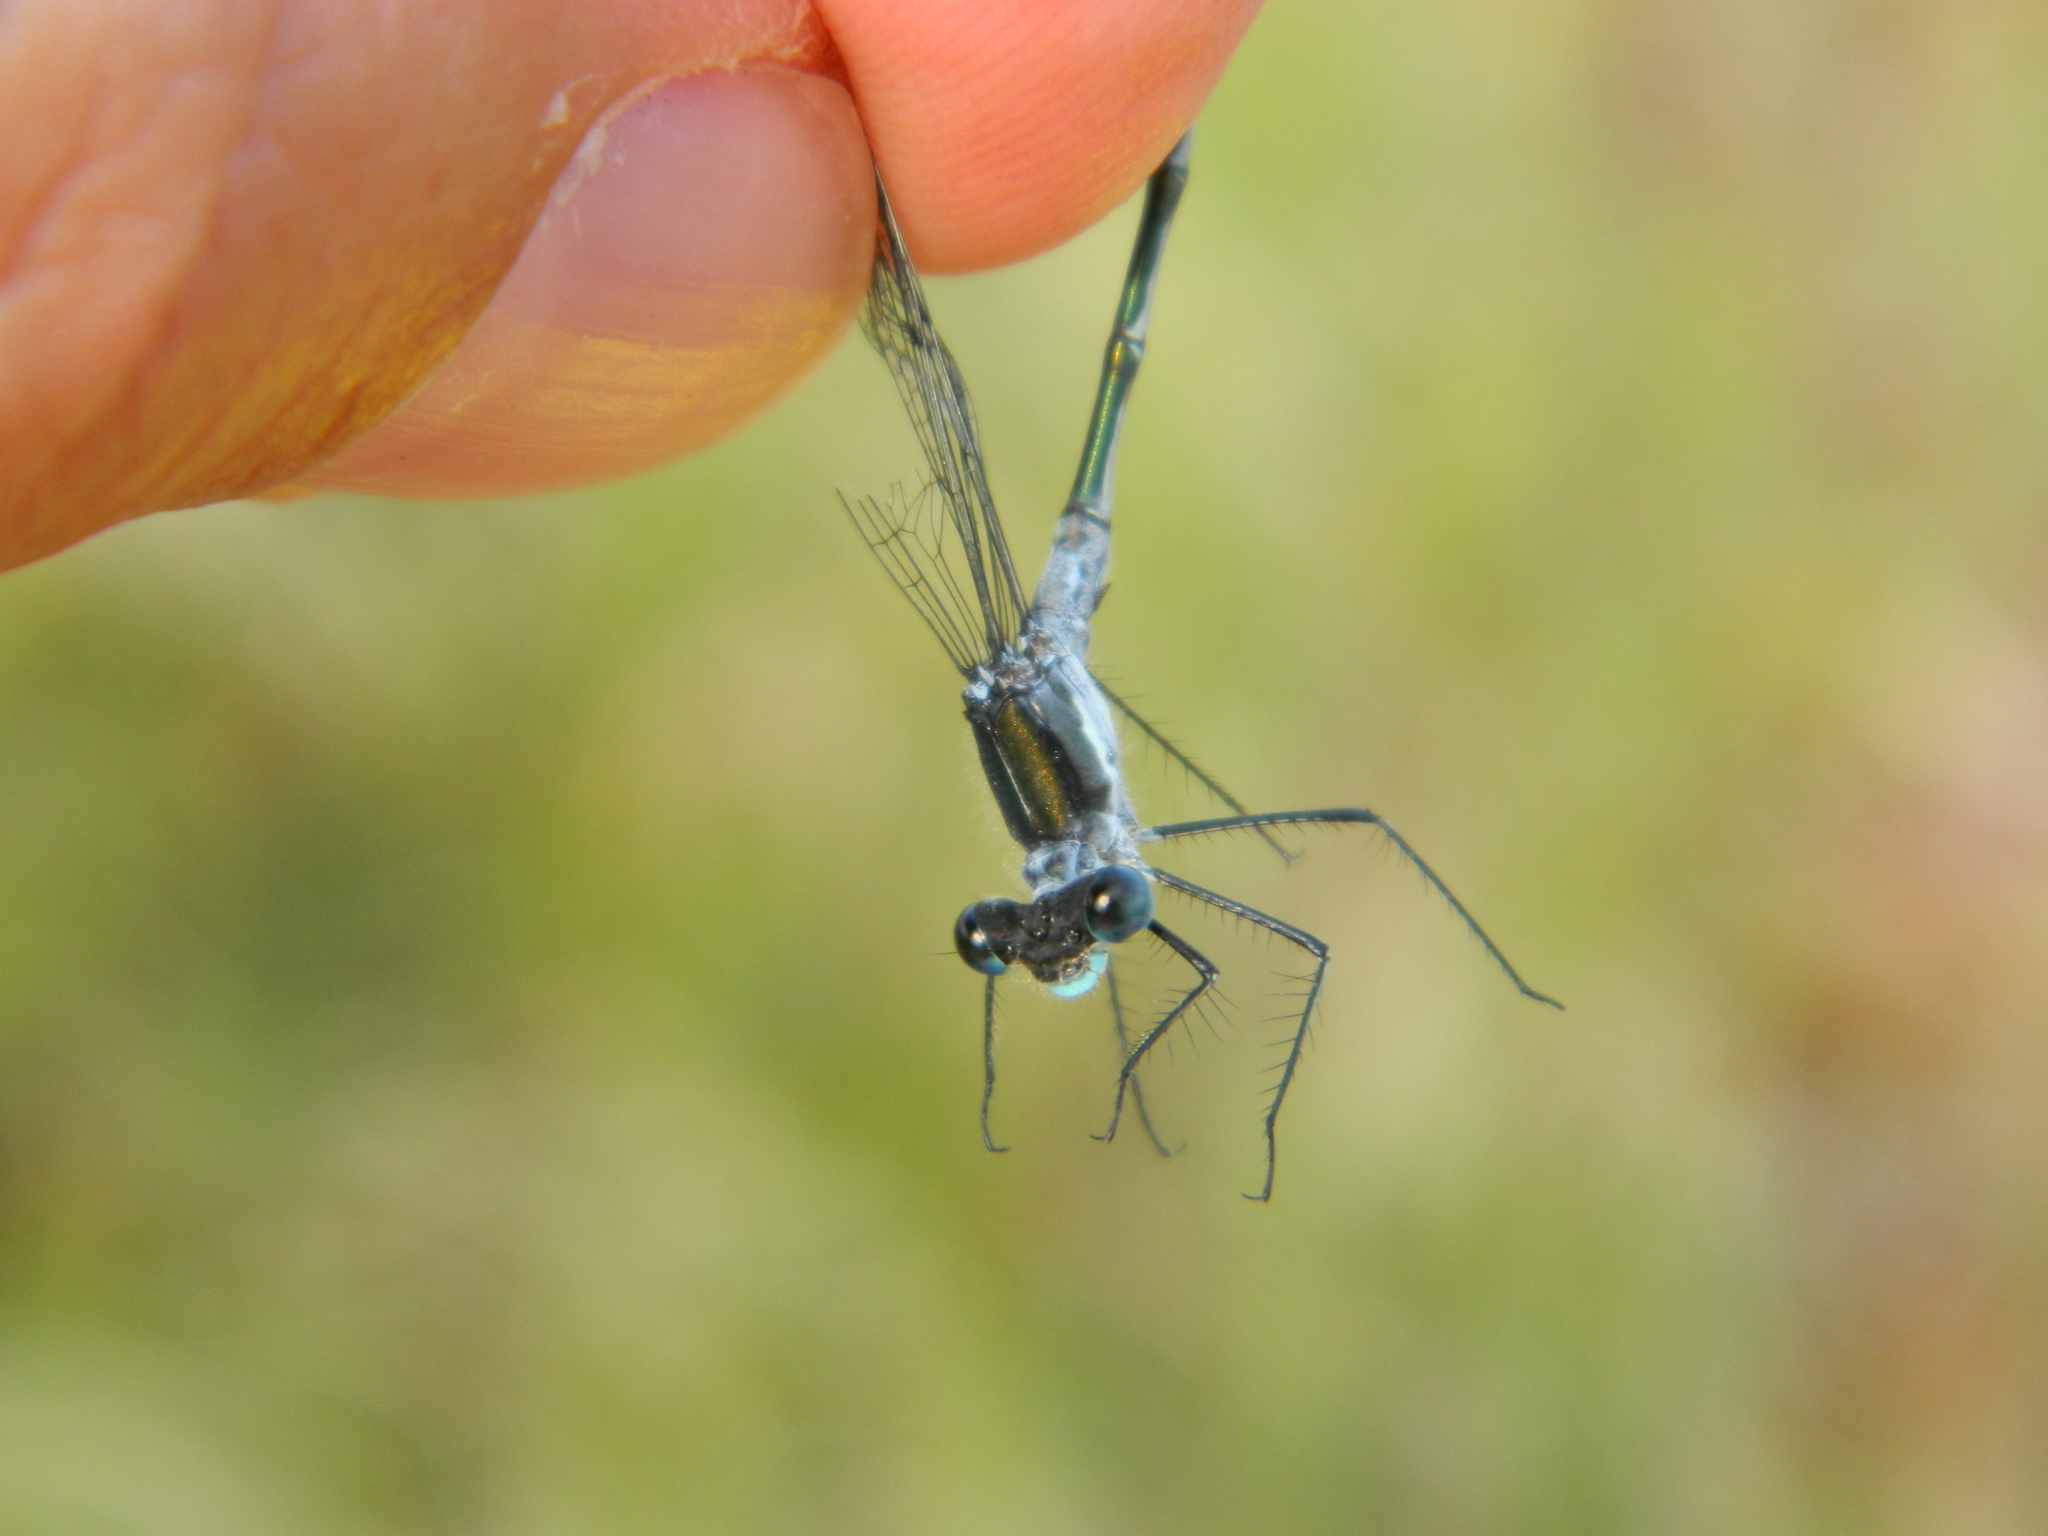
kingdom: Animalia
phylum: Arthropoda
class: Insecta
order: Odonata
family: Lestidae
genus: Lestes
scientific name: Lestes disjunctus
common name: Northern spreadwing
